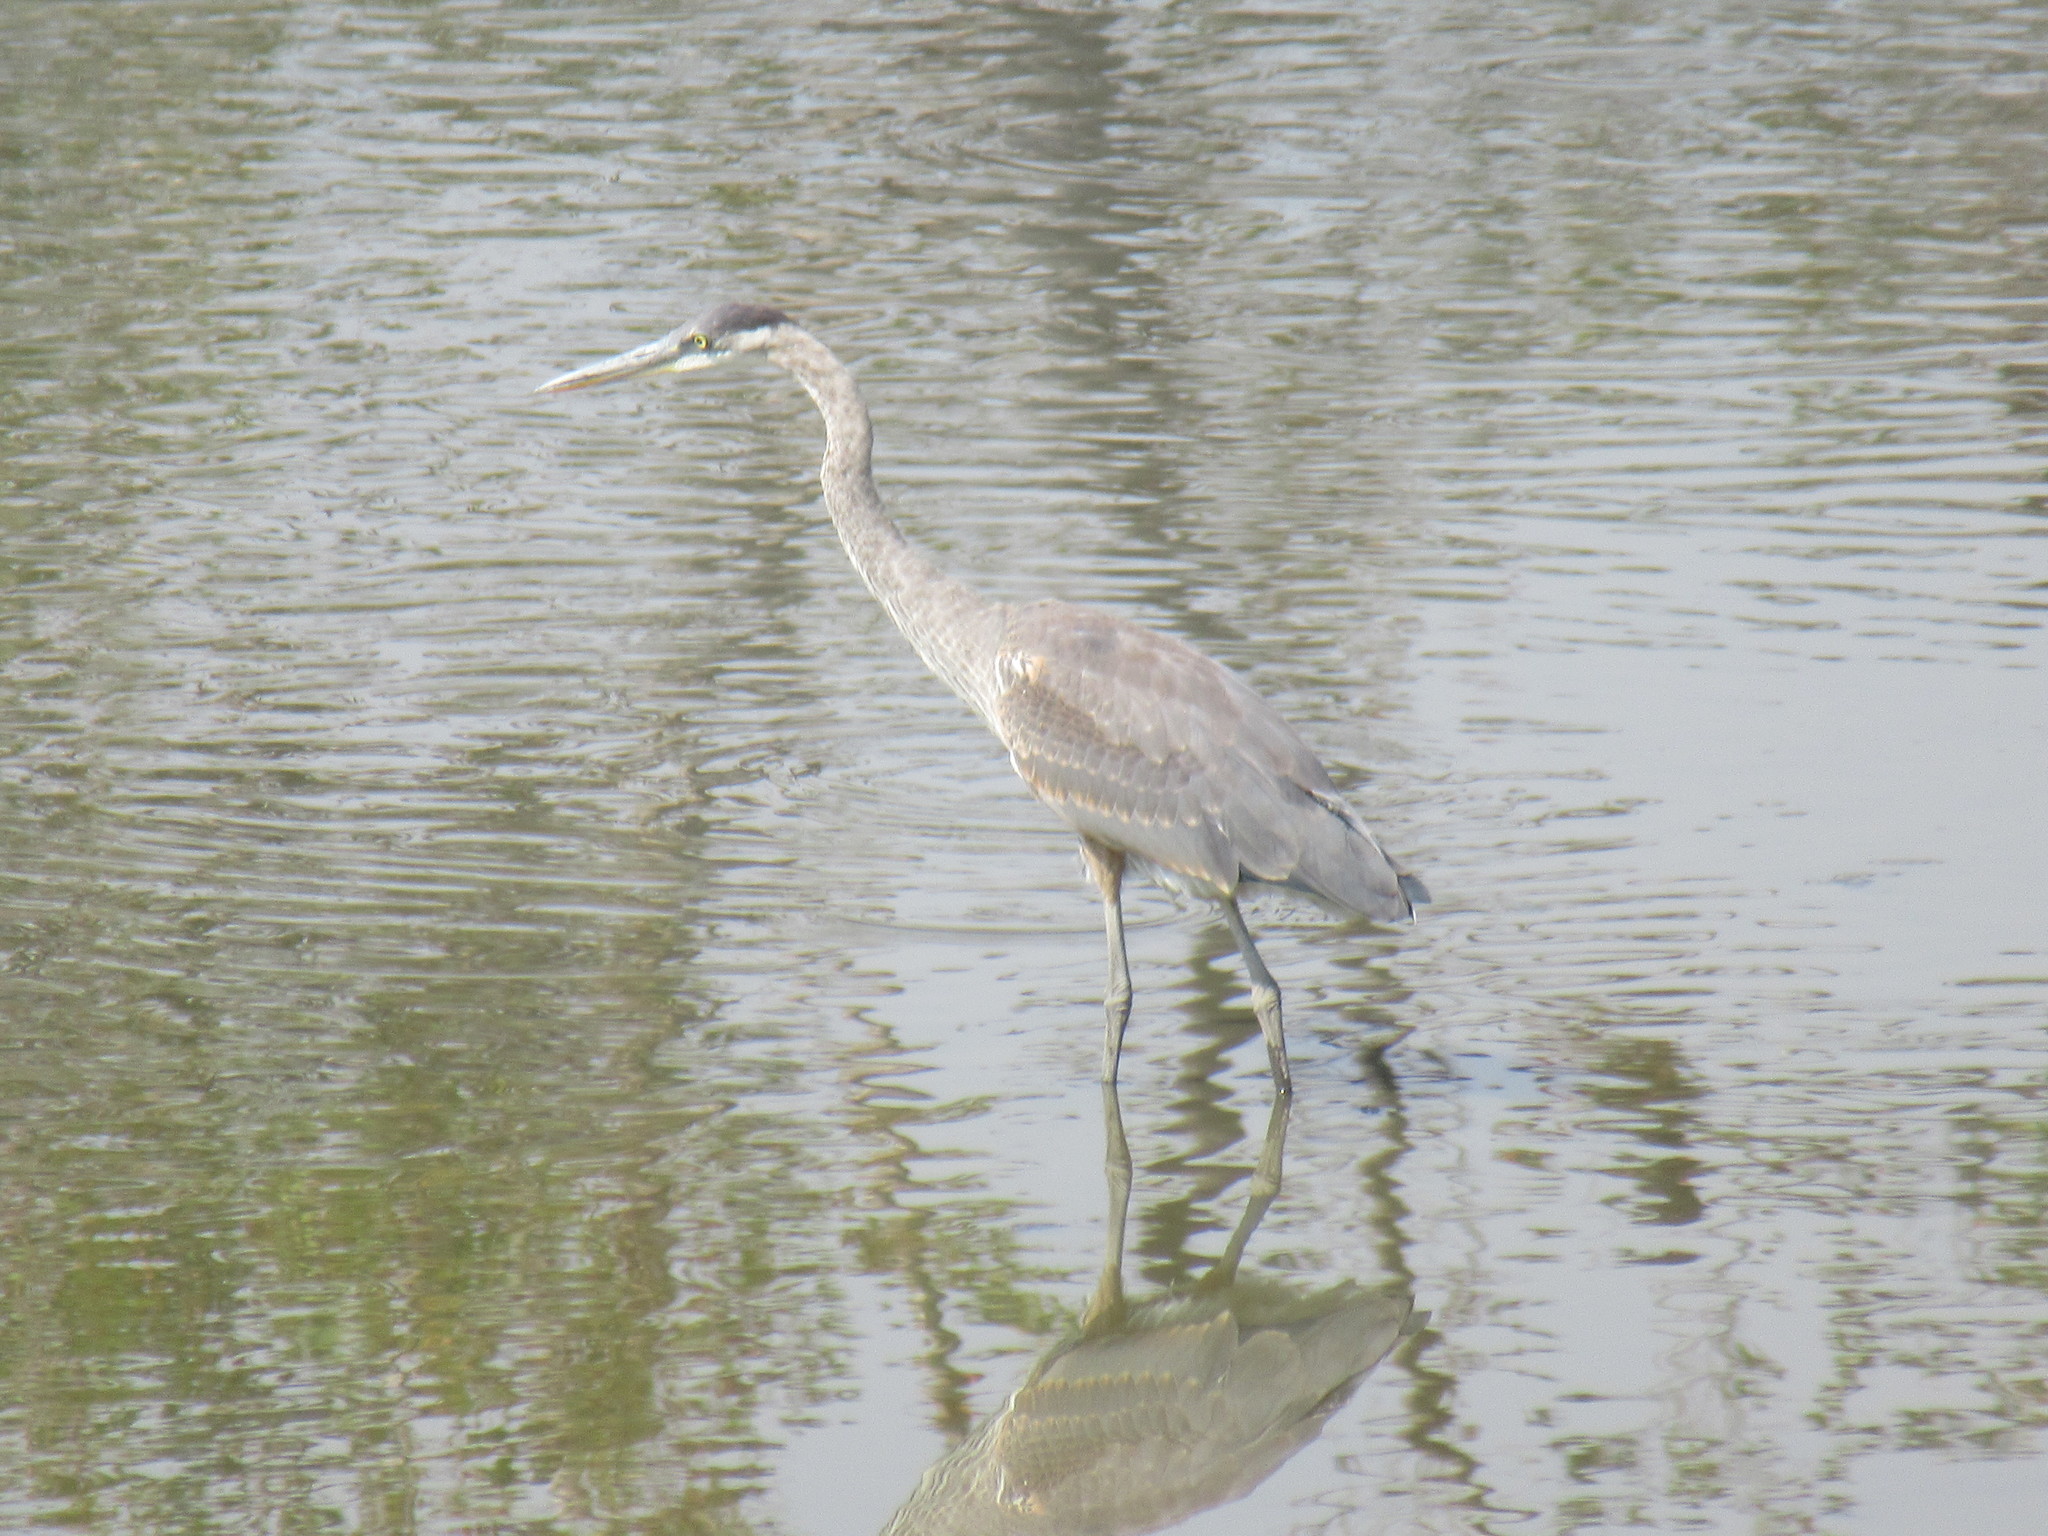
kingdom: Animalia
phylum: Chordata
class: Aves
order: Pelecaniformes
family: Ardeidae
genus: Ardea
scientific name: Ardea herodias
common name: Great blue heron
